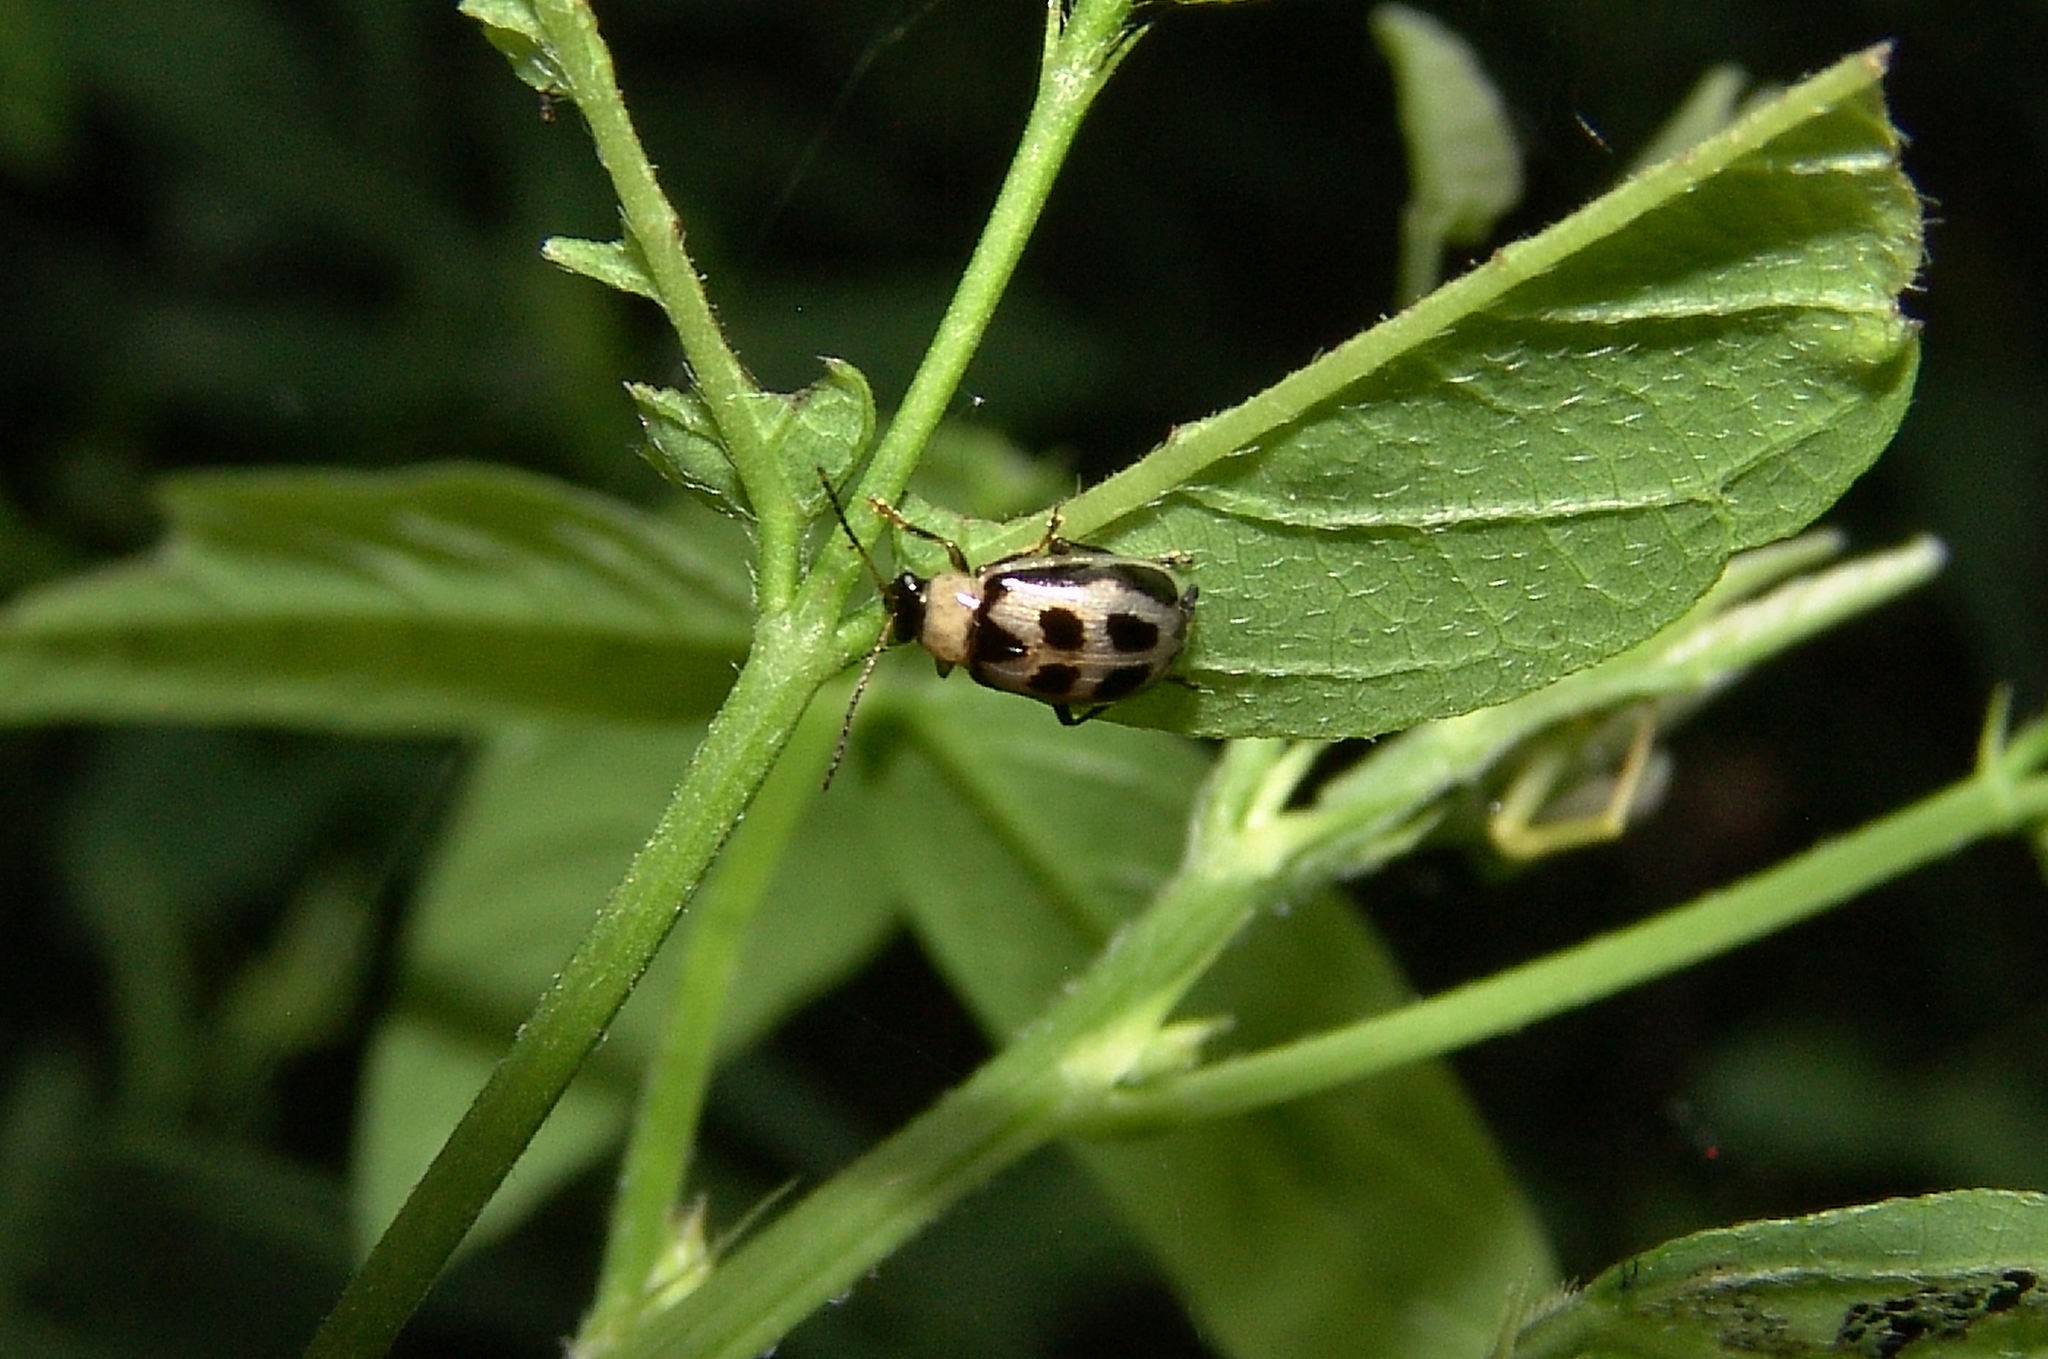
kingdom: Animalia
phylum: Arthropoda
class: Insecta
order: Coleoptera
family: Chrysomelidae
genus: Cerotoma
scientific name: Cerotoma trifurcata
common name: Bean leaf beetle
